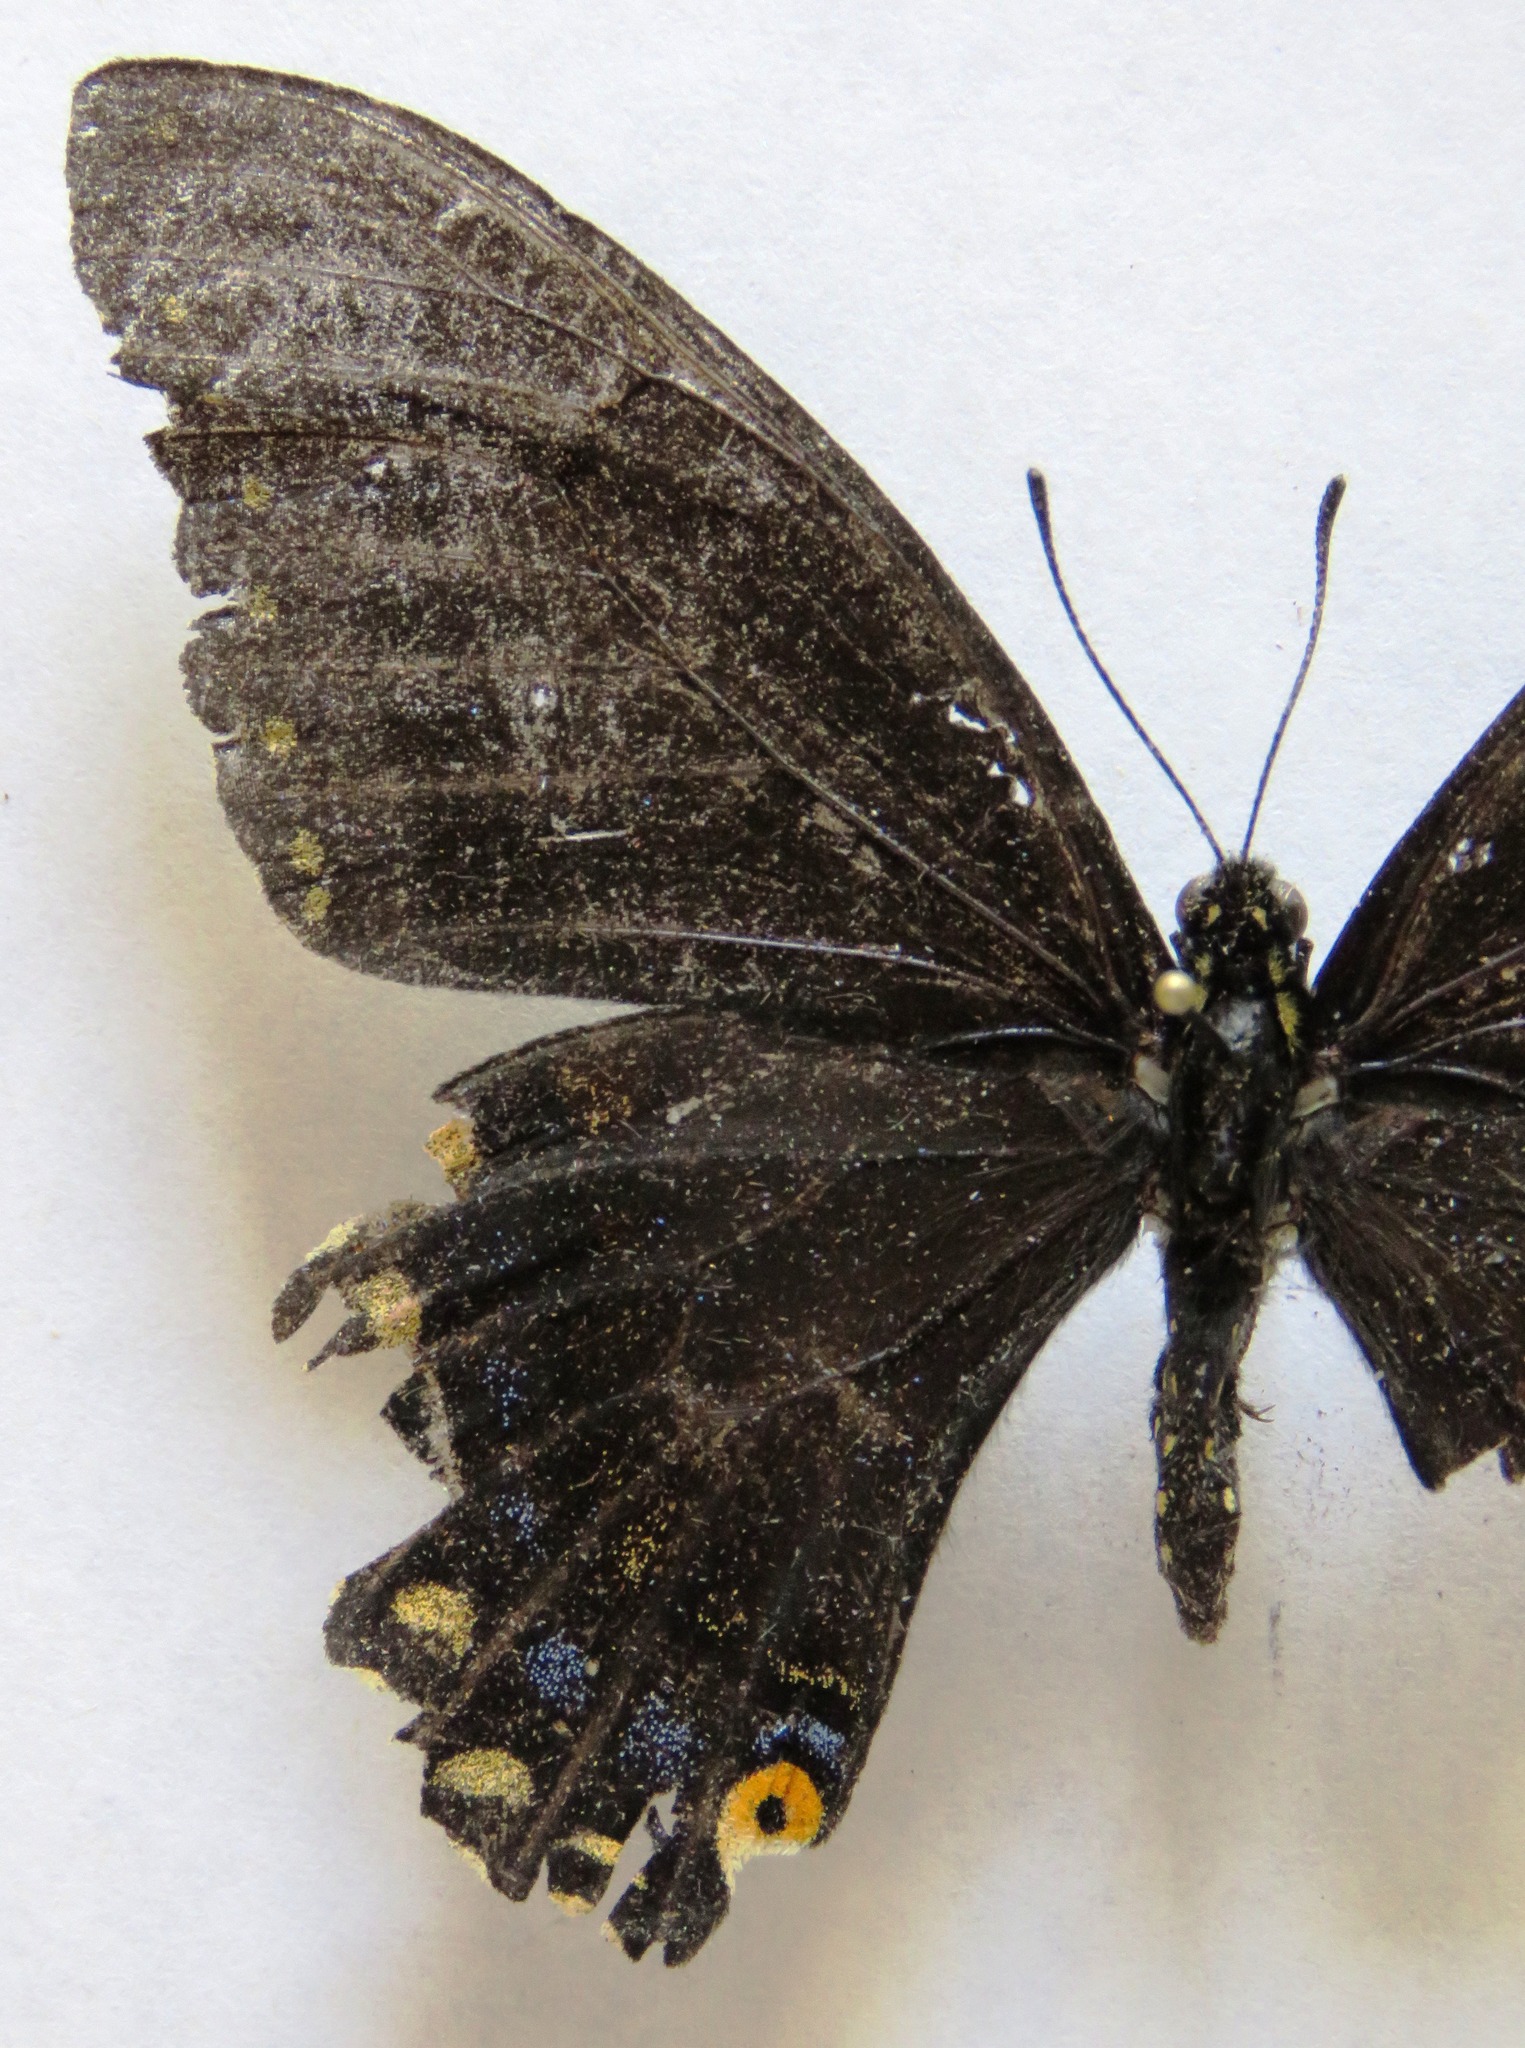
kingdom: Animalia
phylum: Arthropoda
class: Insecta
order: Lepidoptera
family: Papilionidae
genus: Papilio
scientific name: Papilio polyxenes
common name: Black swallowtail
